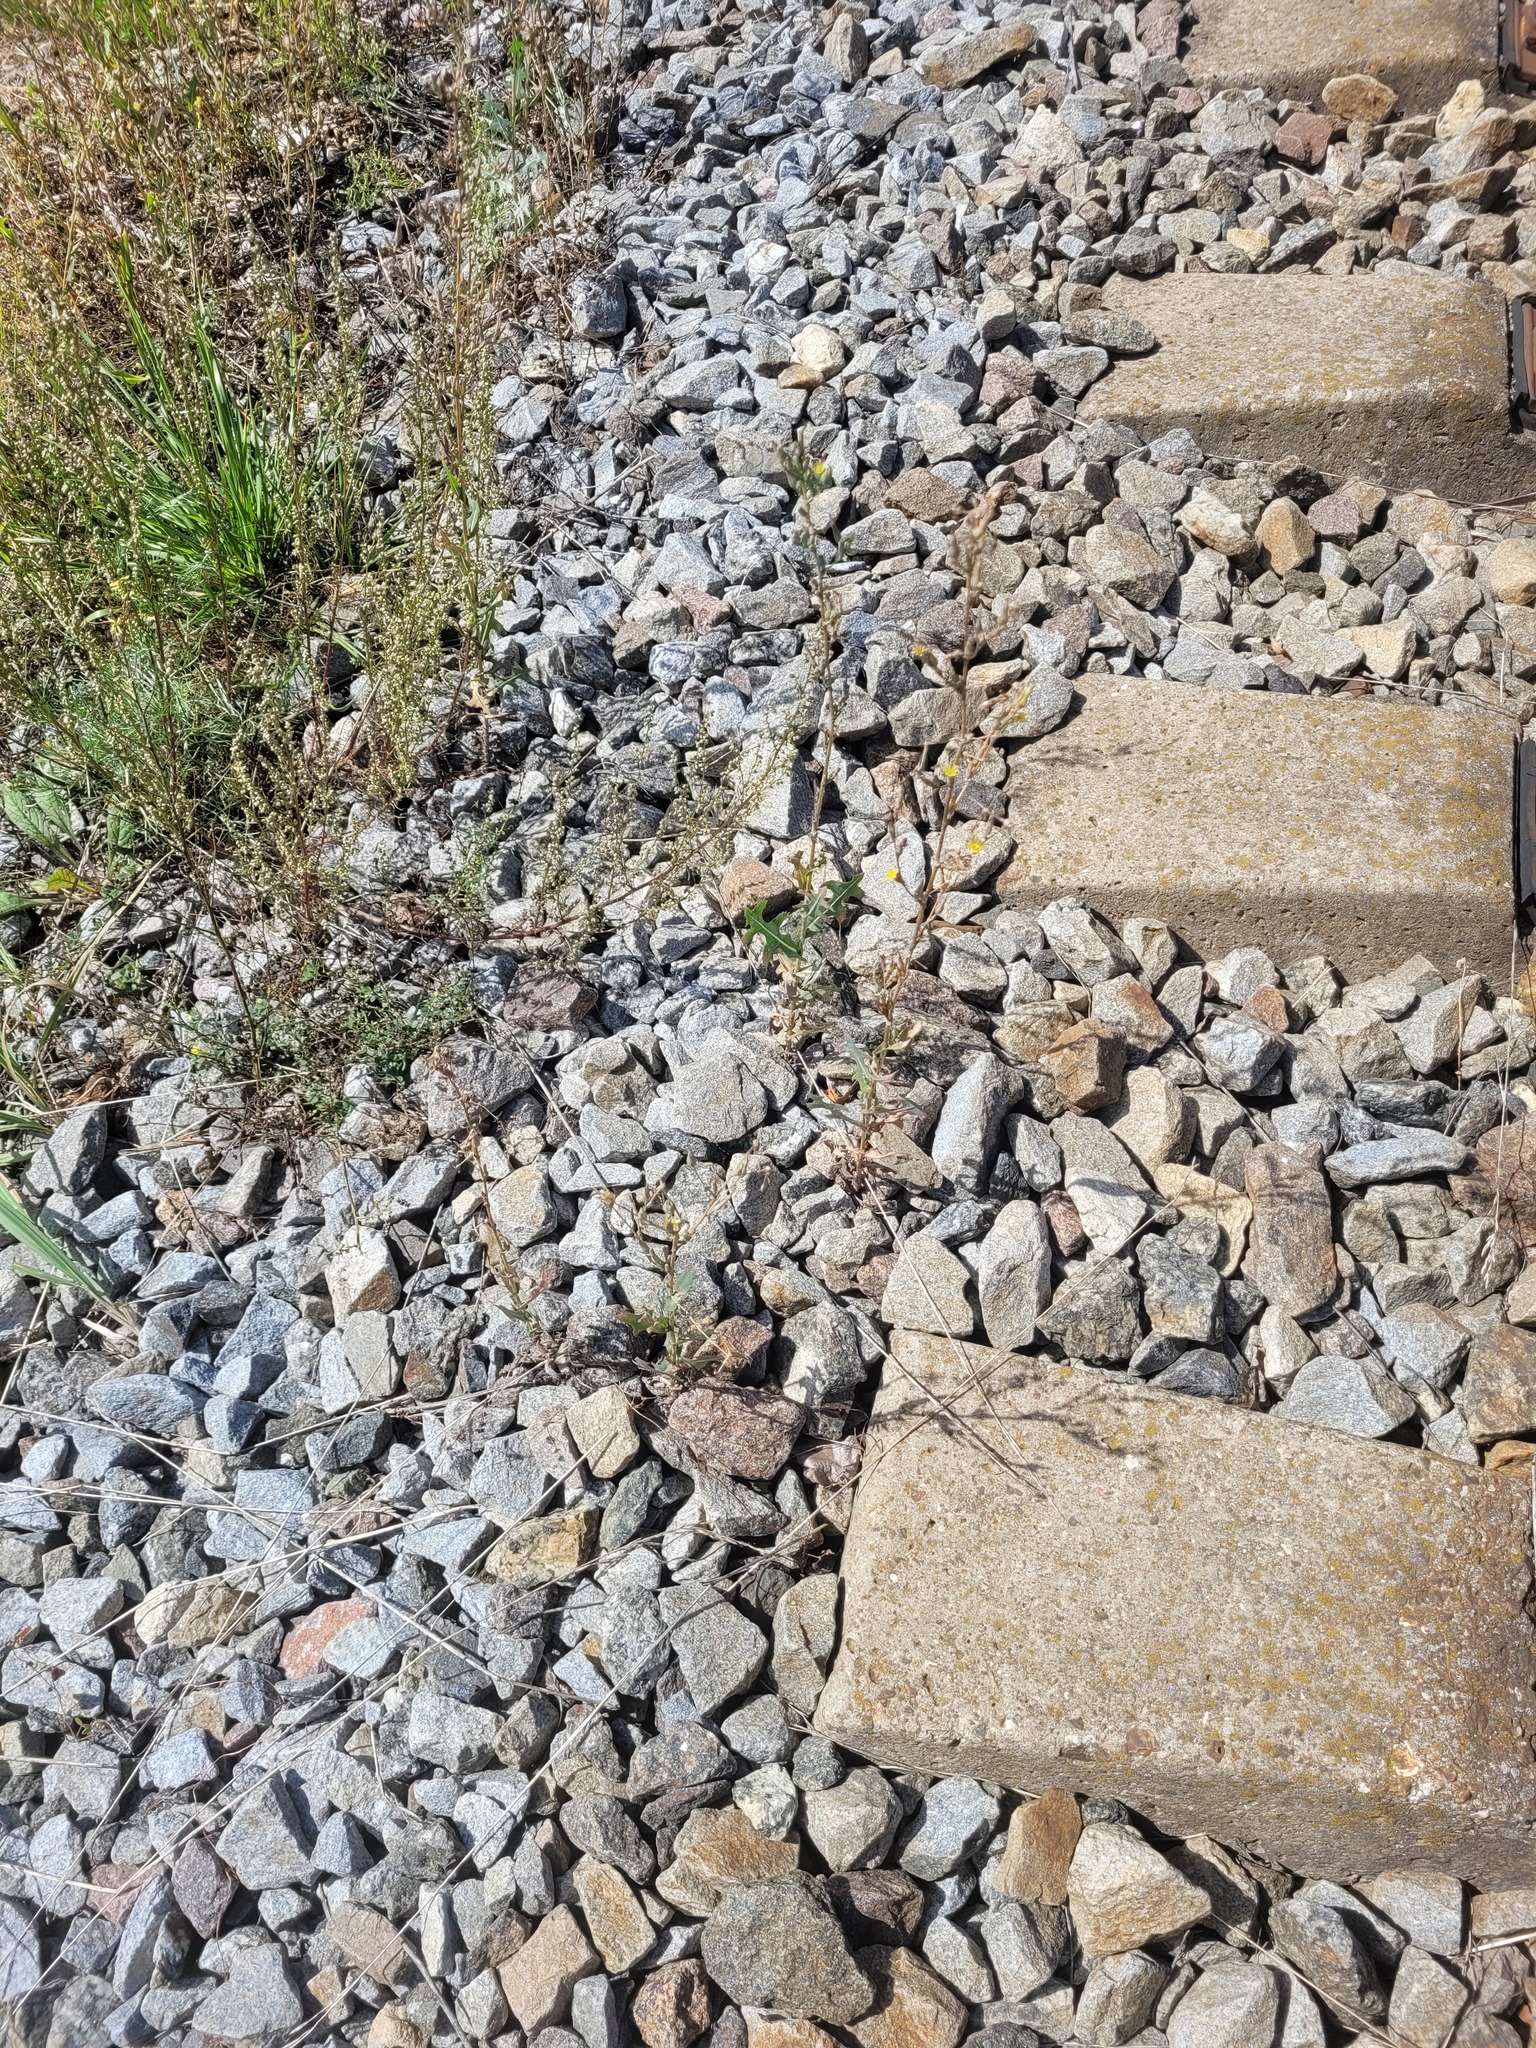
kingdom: Plantae
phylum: Tracheophyta
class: Magnoliopsida
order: Asterales
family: Asteraceae
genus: Lactuca
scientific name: Lactuca serriola
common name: Prickly lettuce
